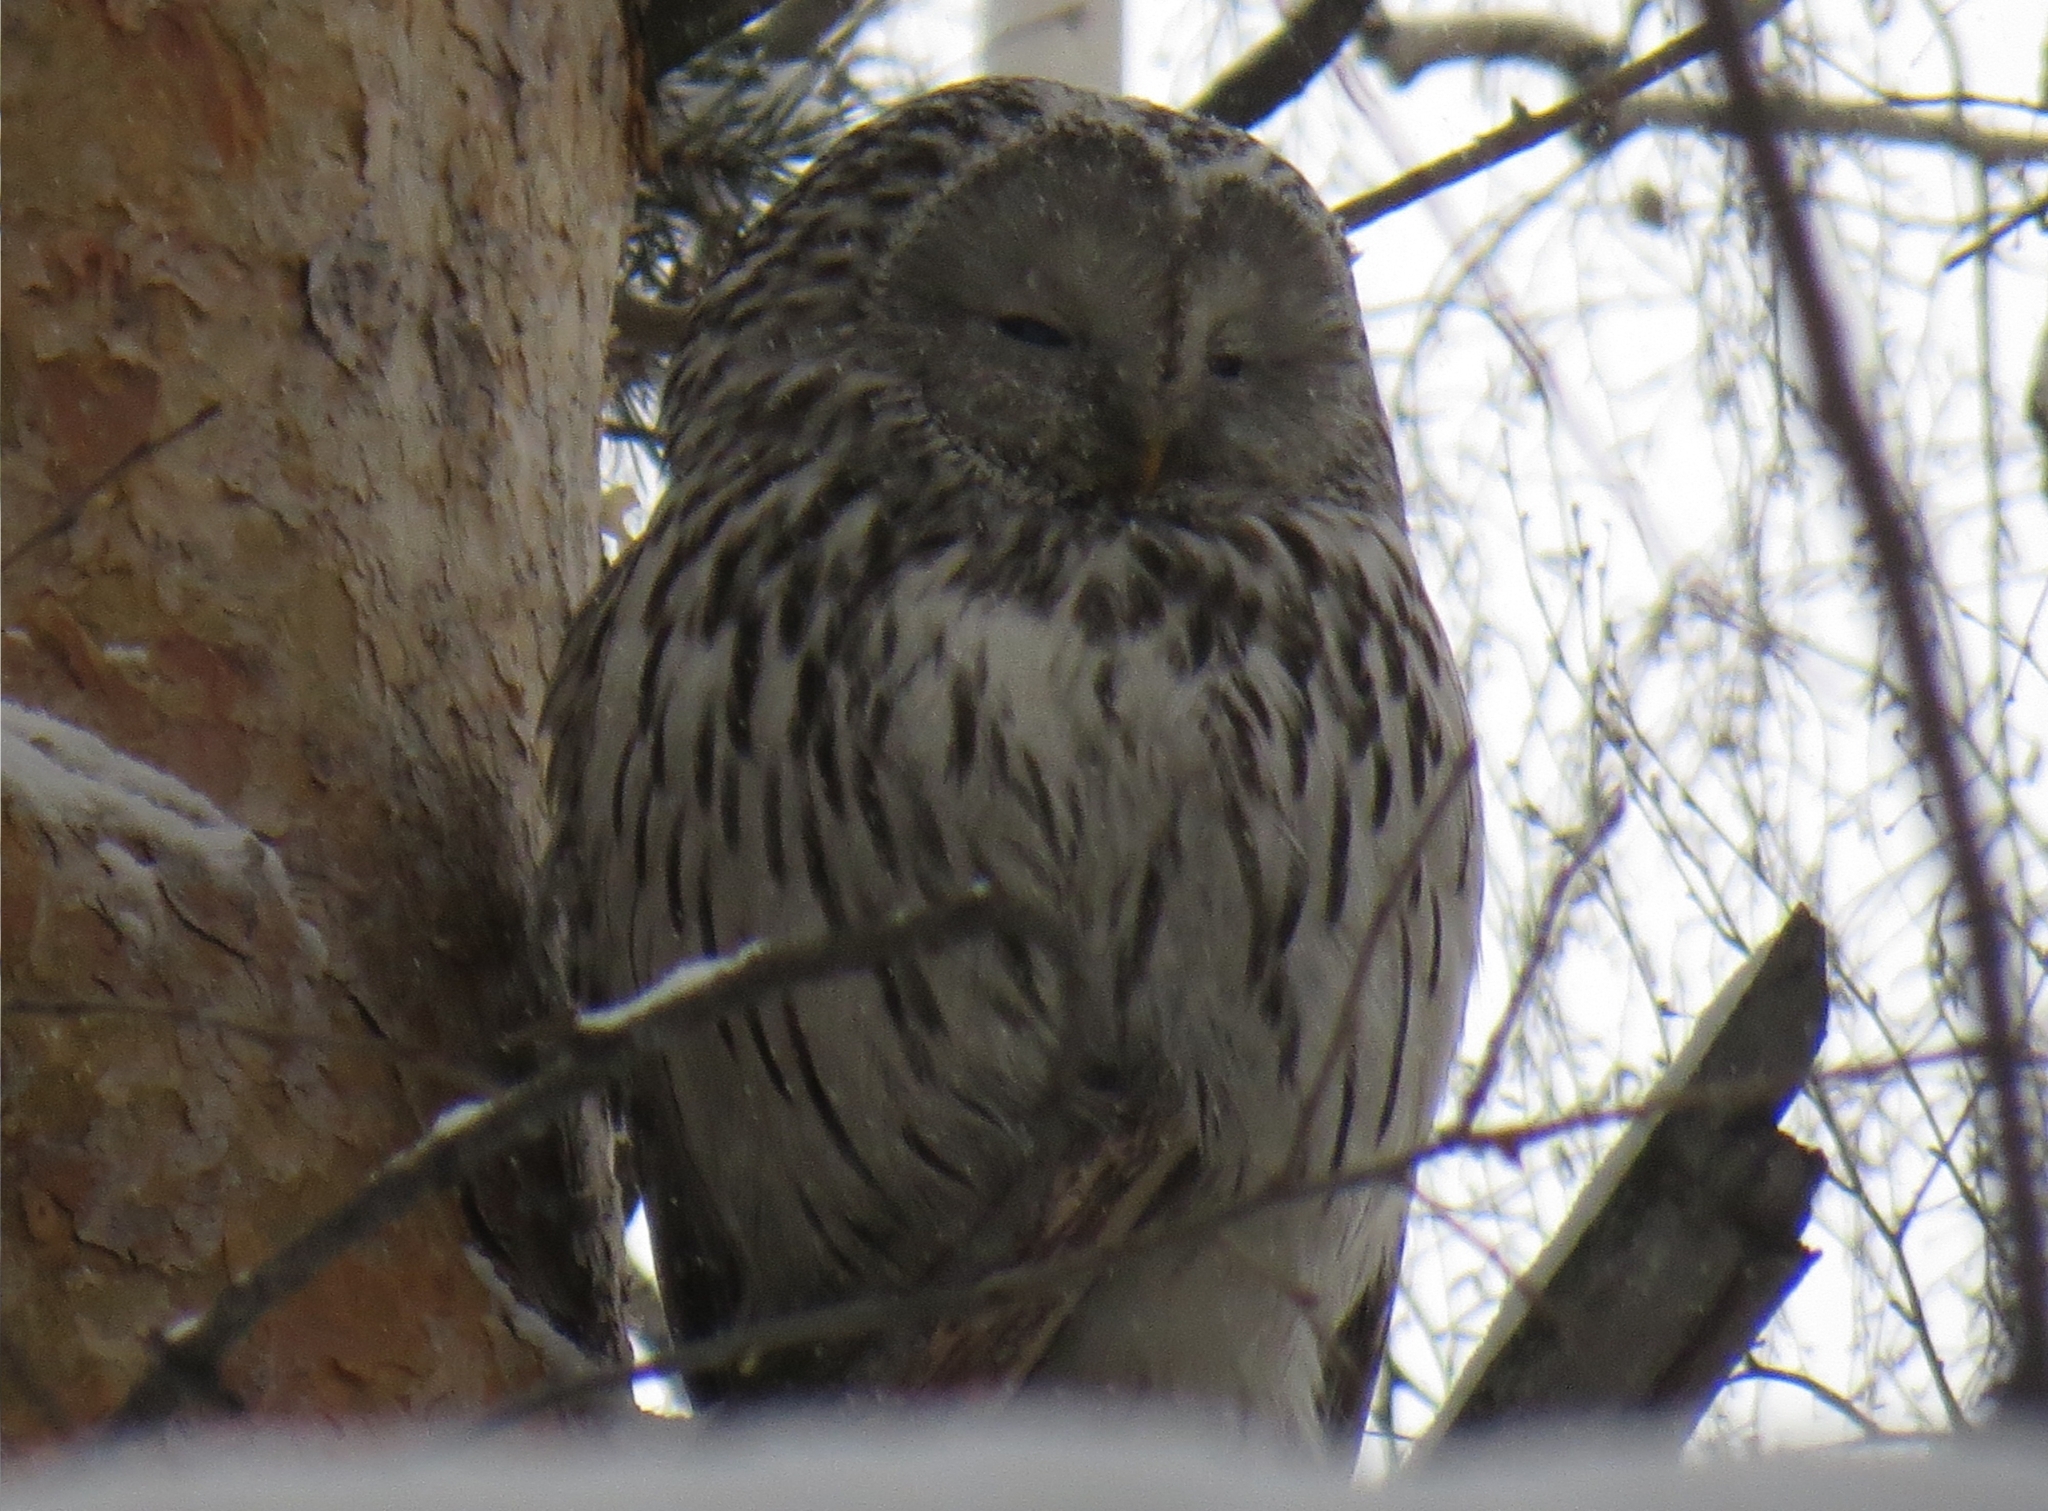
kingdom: Animalia
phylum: Chordata
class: Aves
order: Strigiformes
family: Strigidae
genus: Strix
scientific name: Strix uralensis
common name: Ural owl
